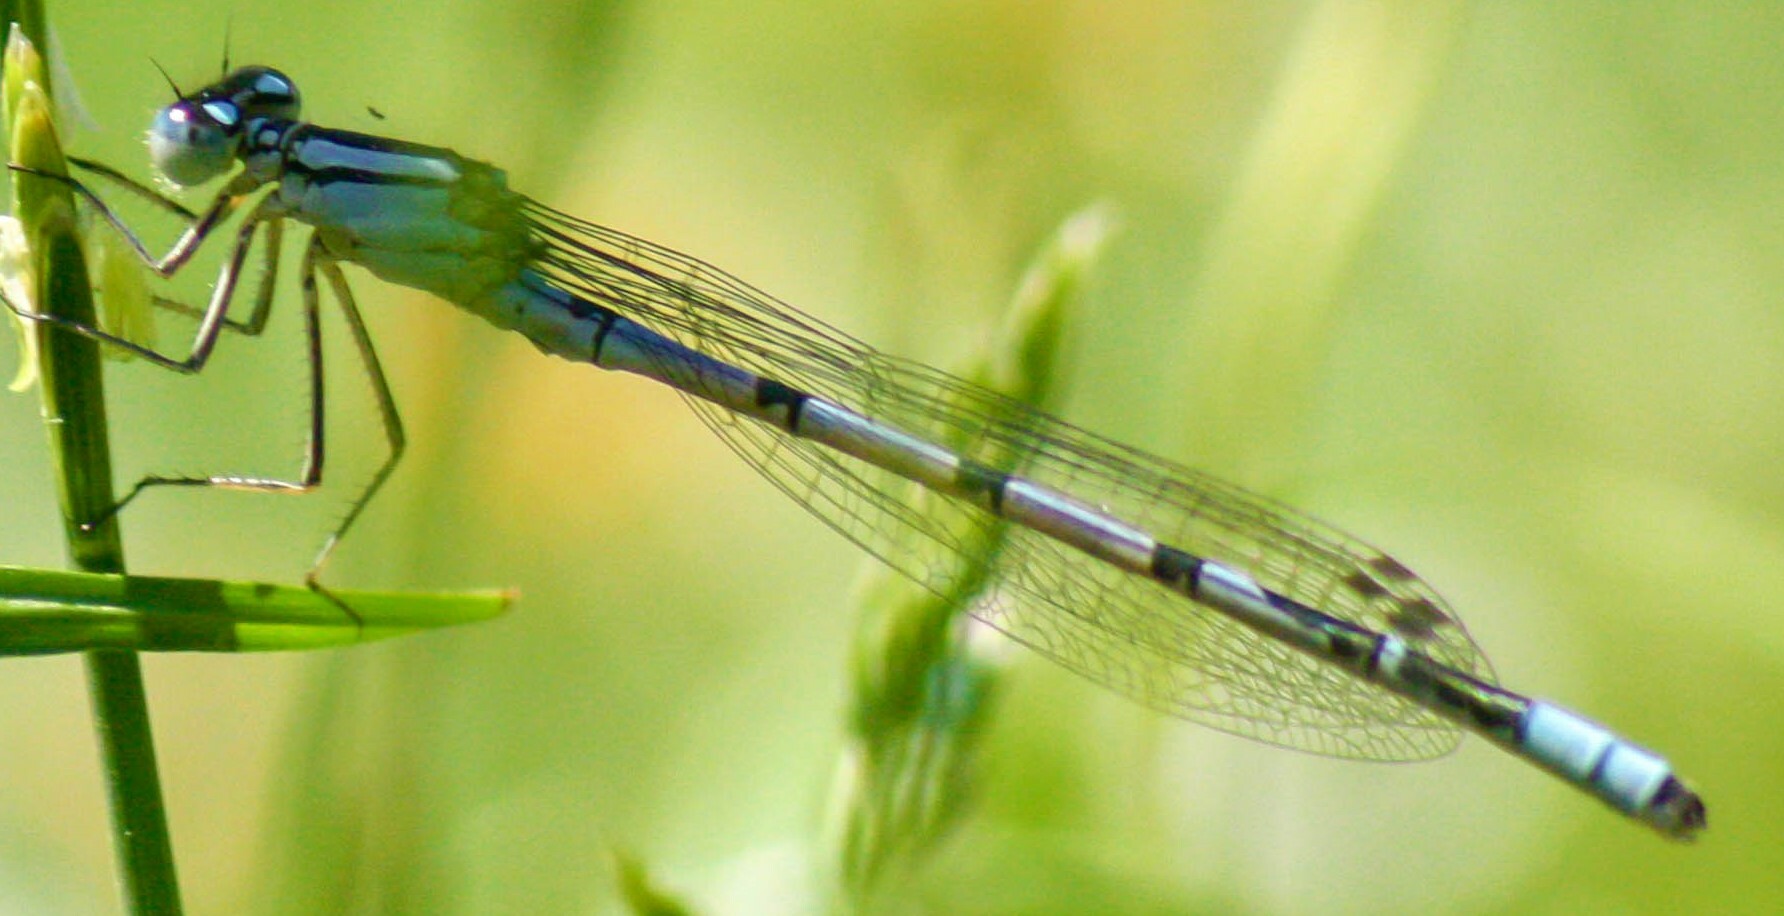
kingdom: Animalia
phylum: Arthropoda
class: Insecta
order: Odonata
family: Coenagrionidae
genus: Enallagma
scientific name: Enallagma cyathigerum
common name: Common blue damselfly
